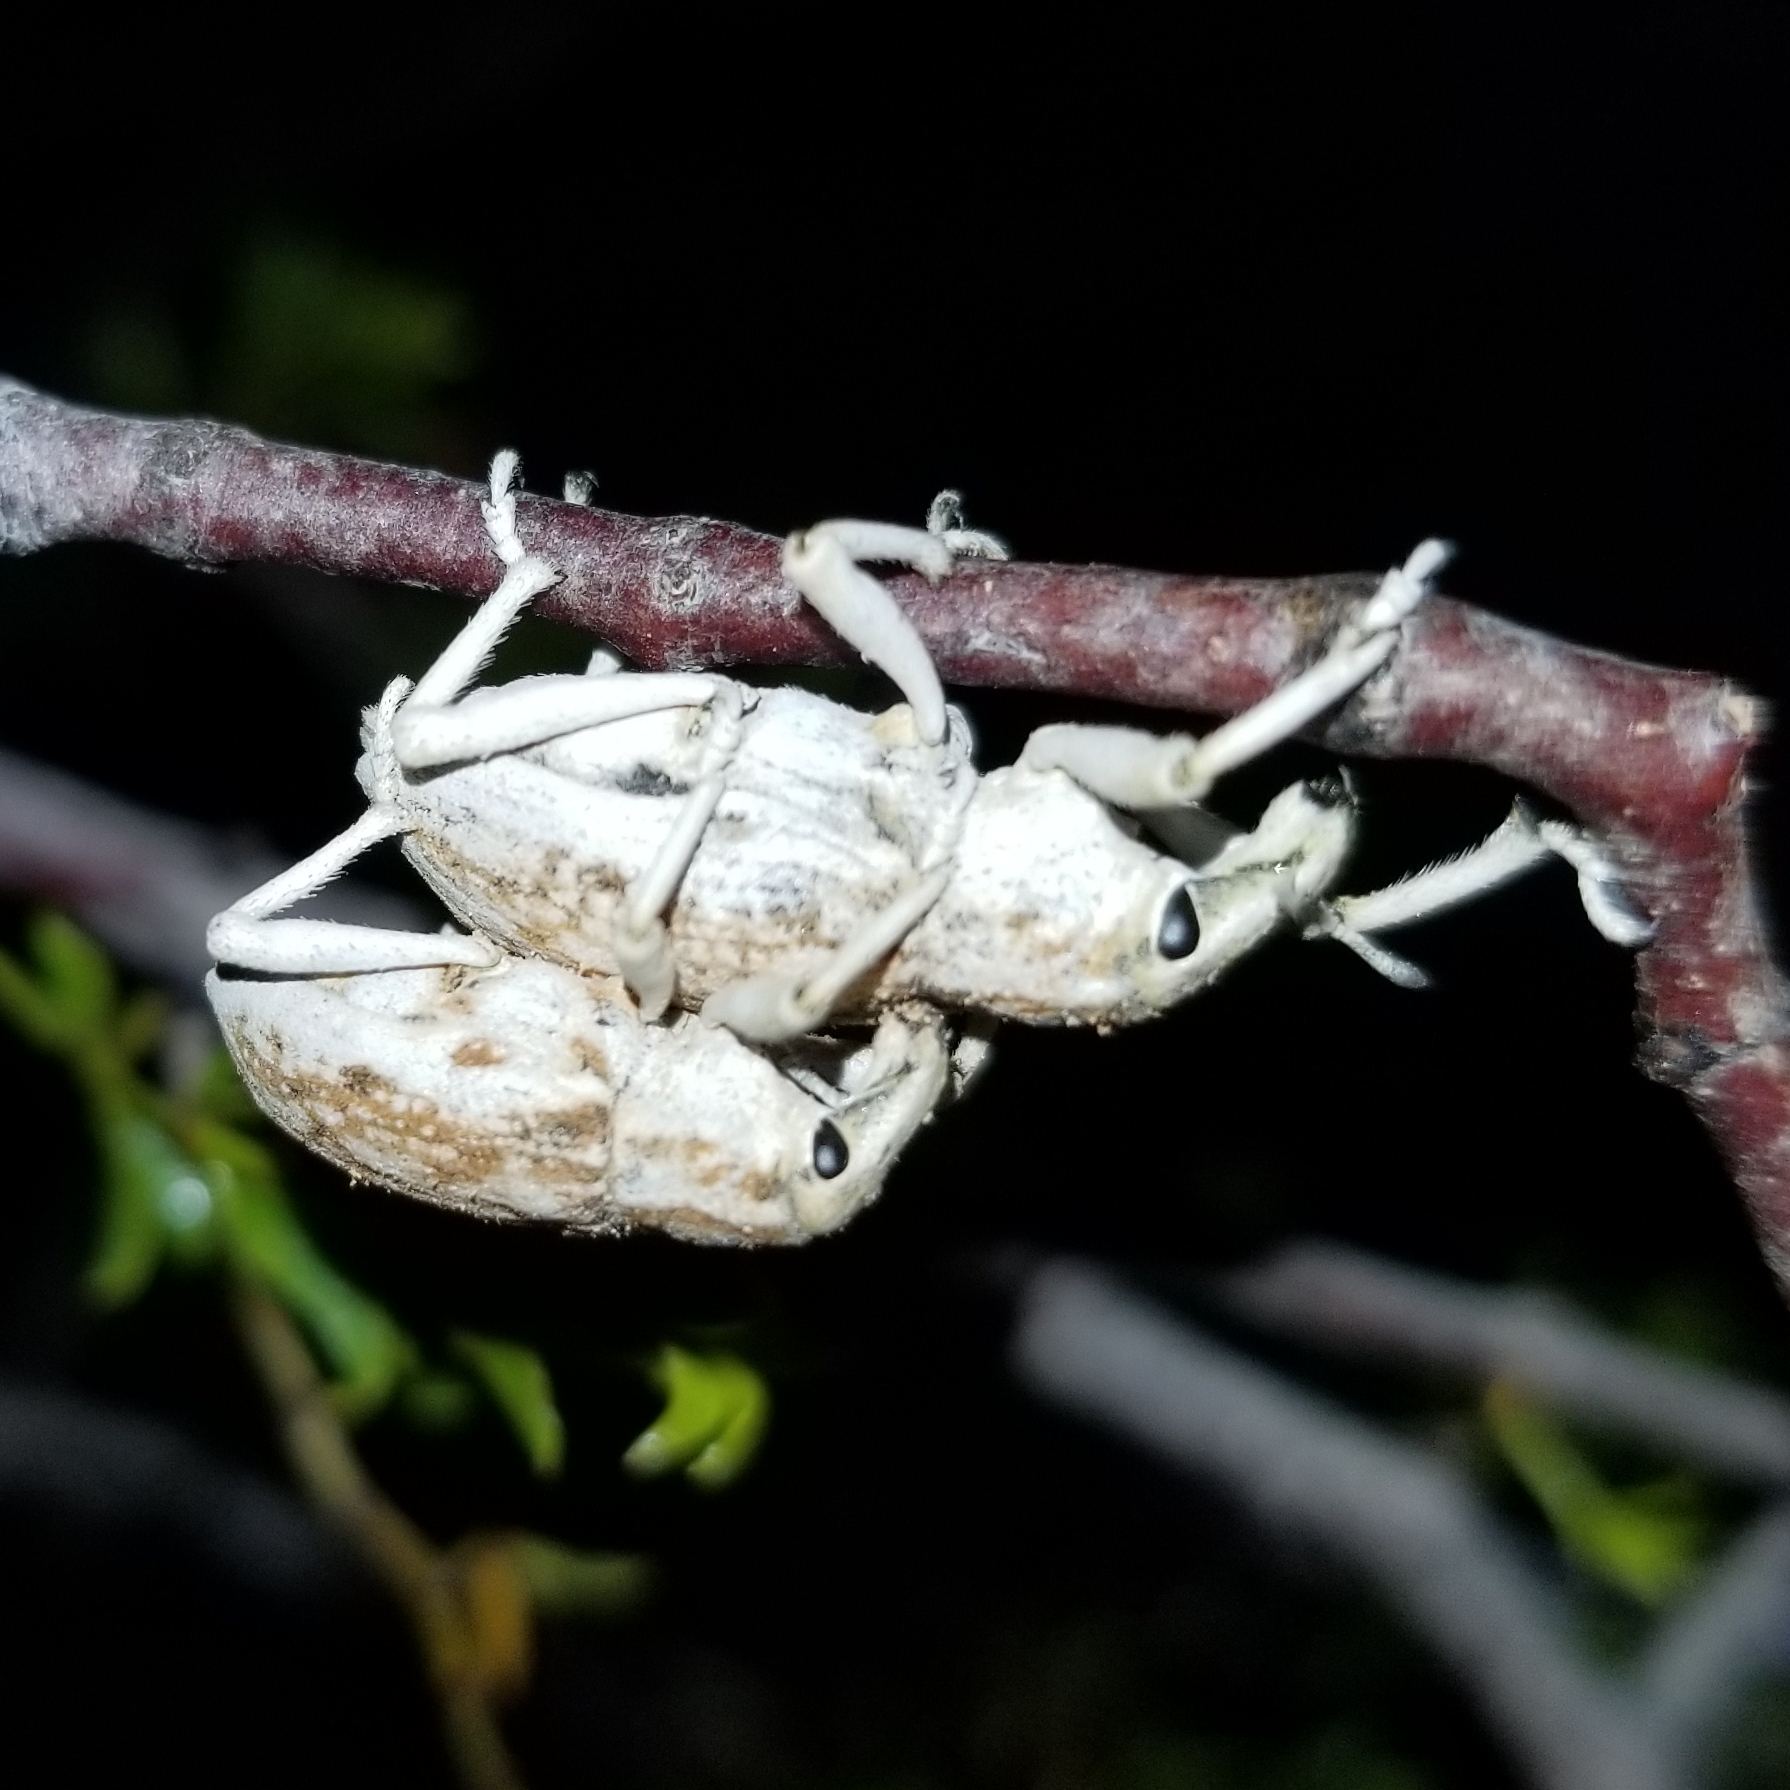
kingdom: Animalia
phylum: Arthropoda
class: Insecta
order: Coleoptera
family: Curculionidae
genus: Apleurus
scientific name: Apleurus albovestitus
